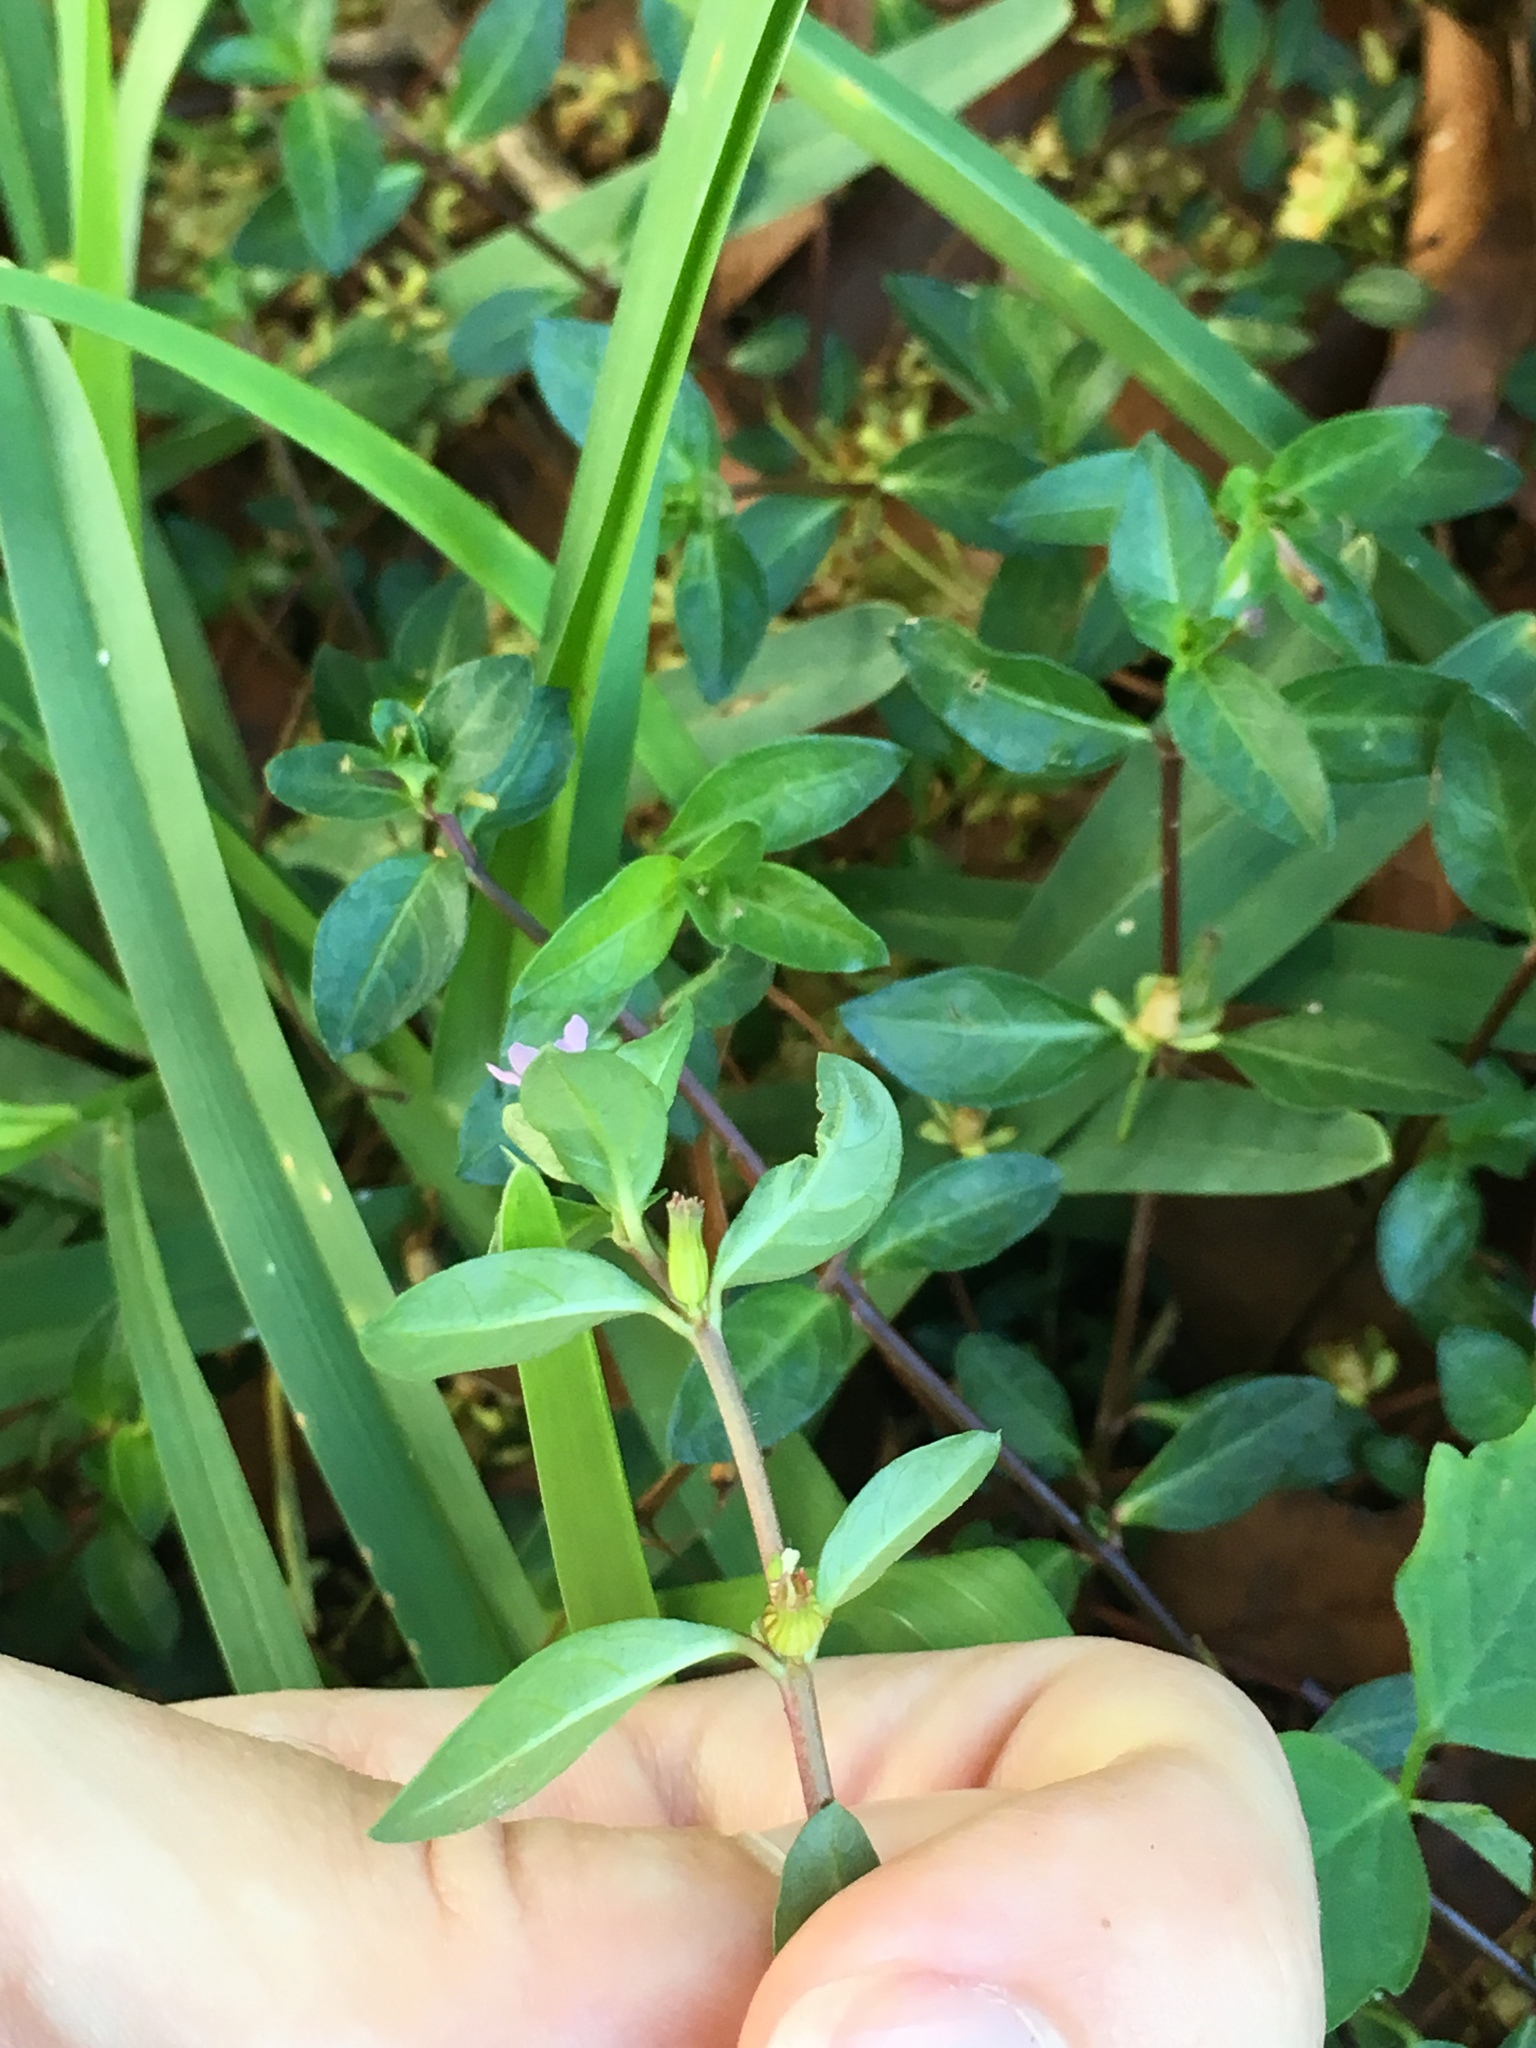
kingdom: Plantae
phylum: Tracheophyta
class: Magnoliopsida
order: Myrtales
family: Lythraceae
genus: Cuphea
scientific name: Cuphea carthagenensis
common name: Colombian waxweed
